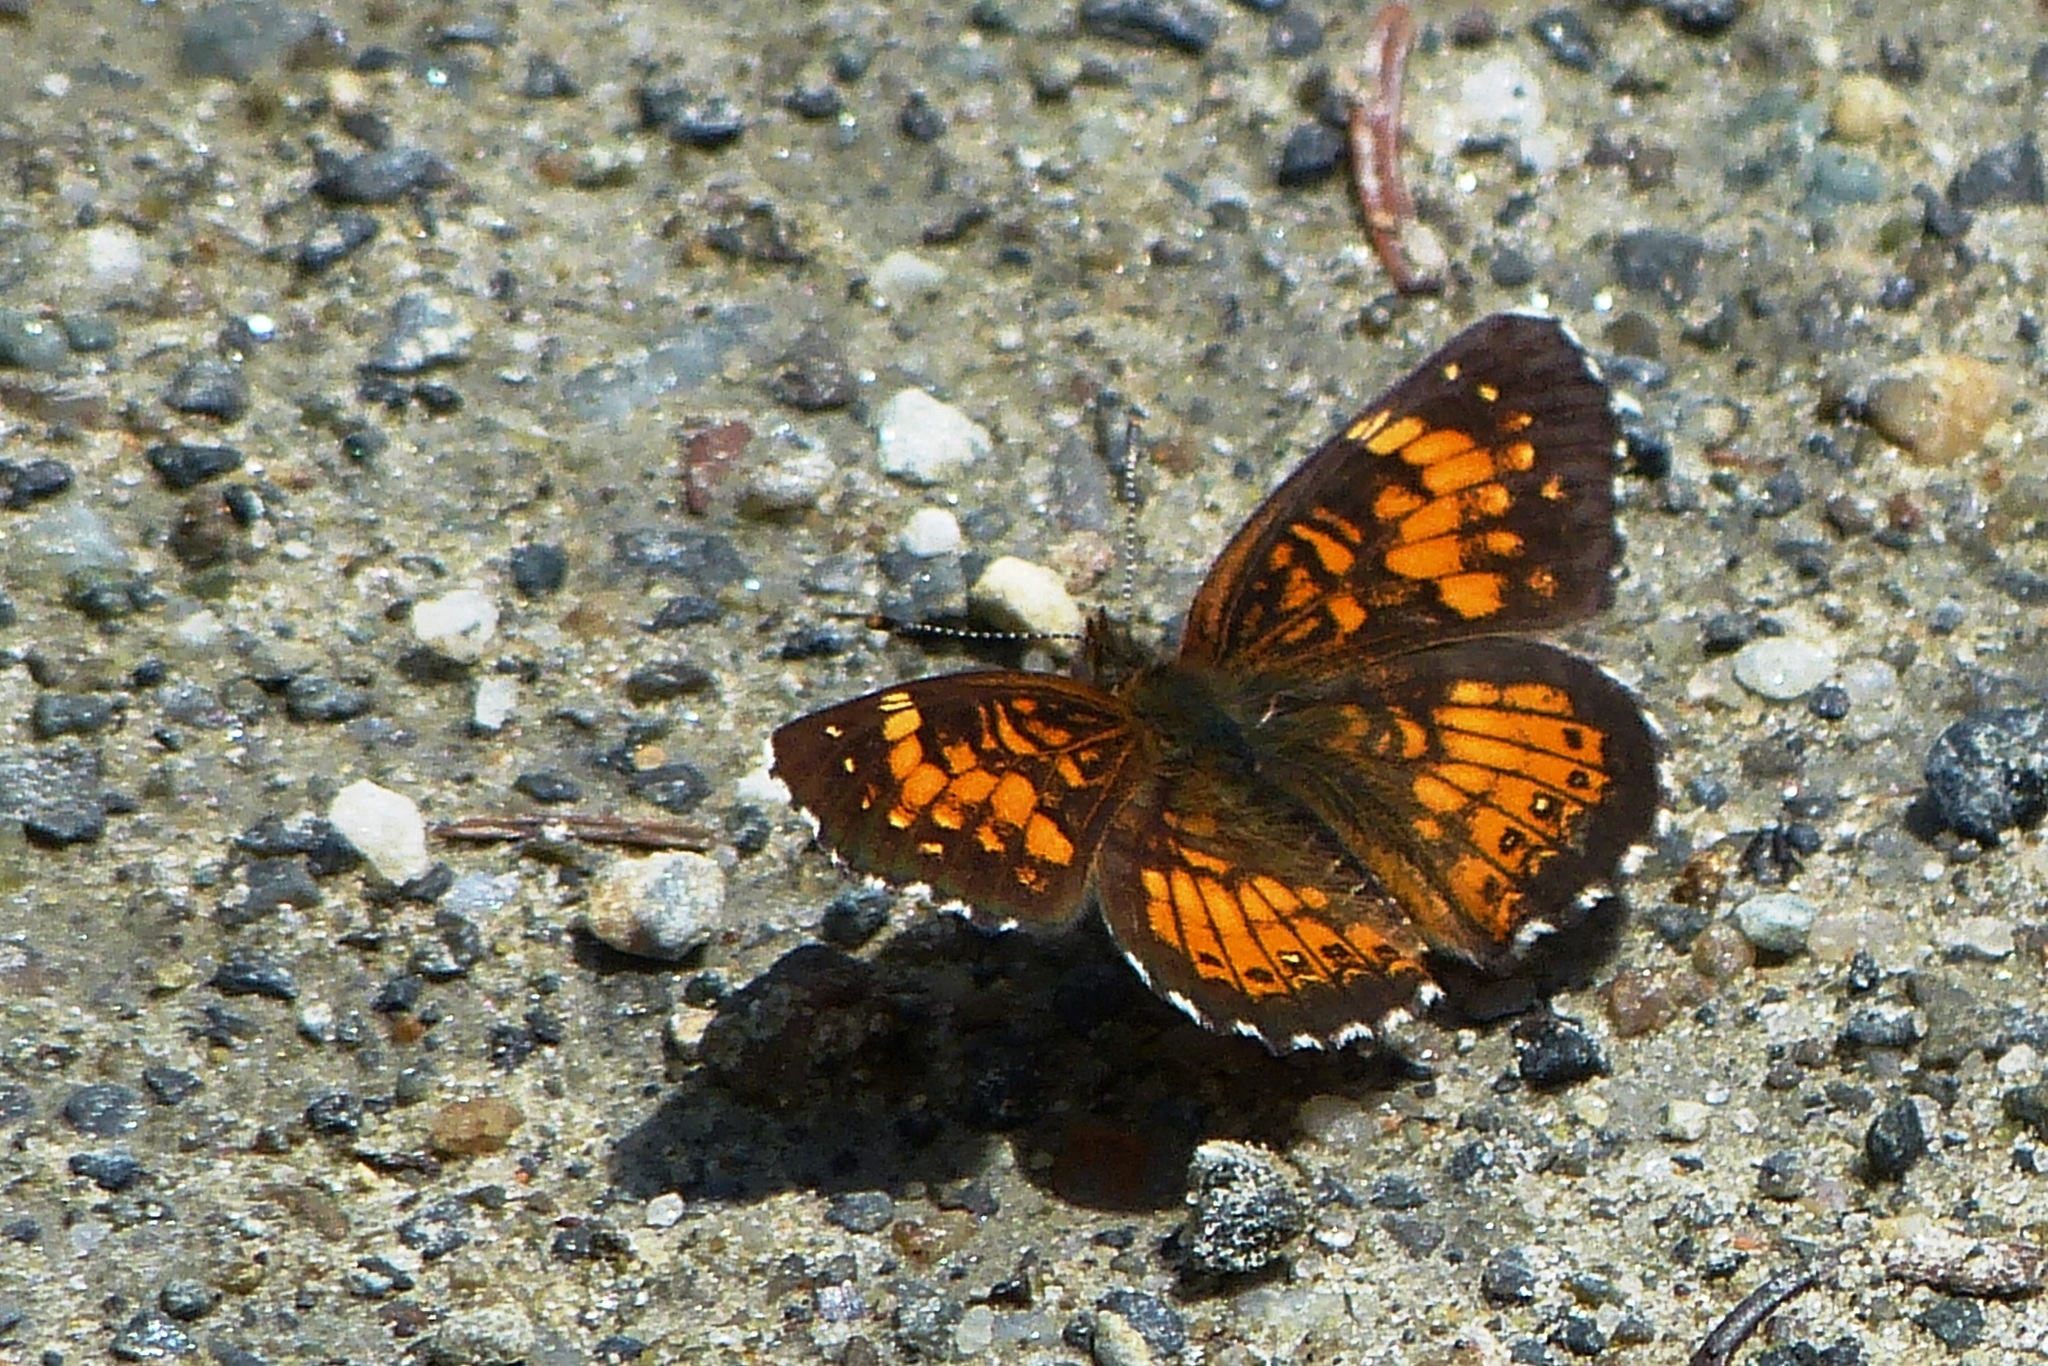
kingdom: Animalia
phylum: Arthropoda
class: Insecta
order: Lepidoptera
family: Nymphalidae
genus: Chlosyne
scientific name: Chlosyne harrisii
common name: Harris's checkerspot
